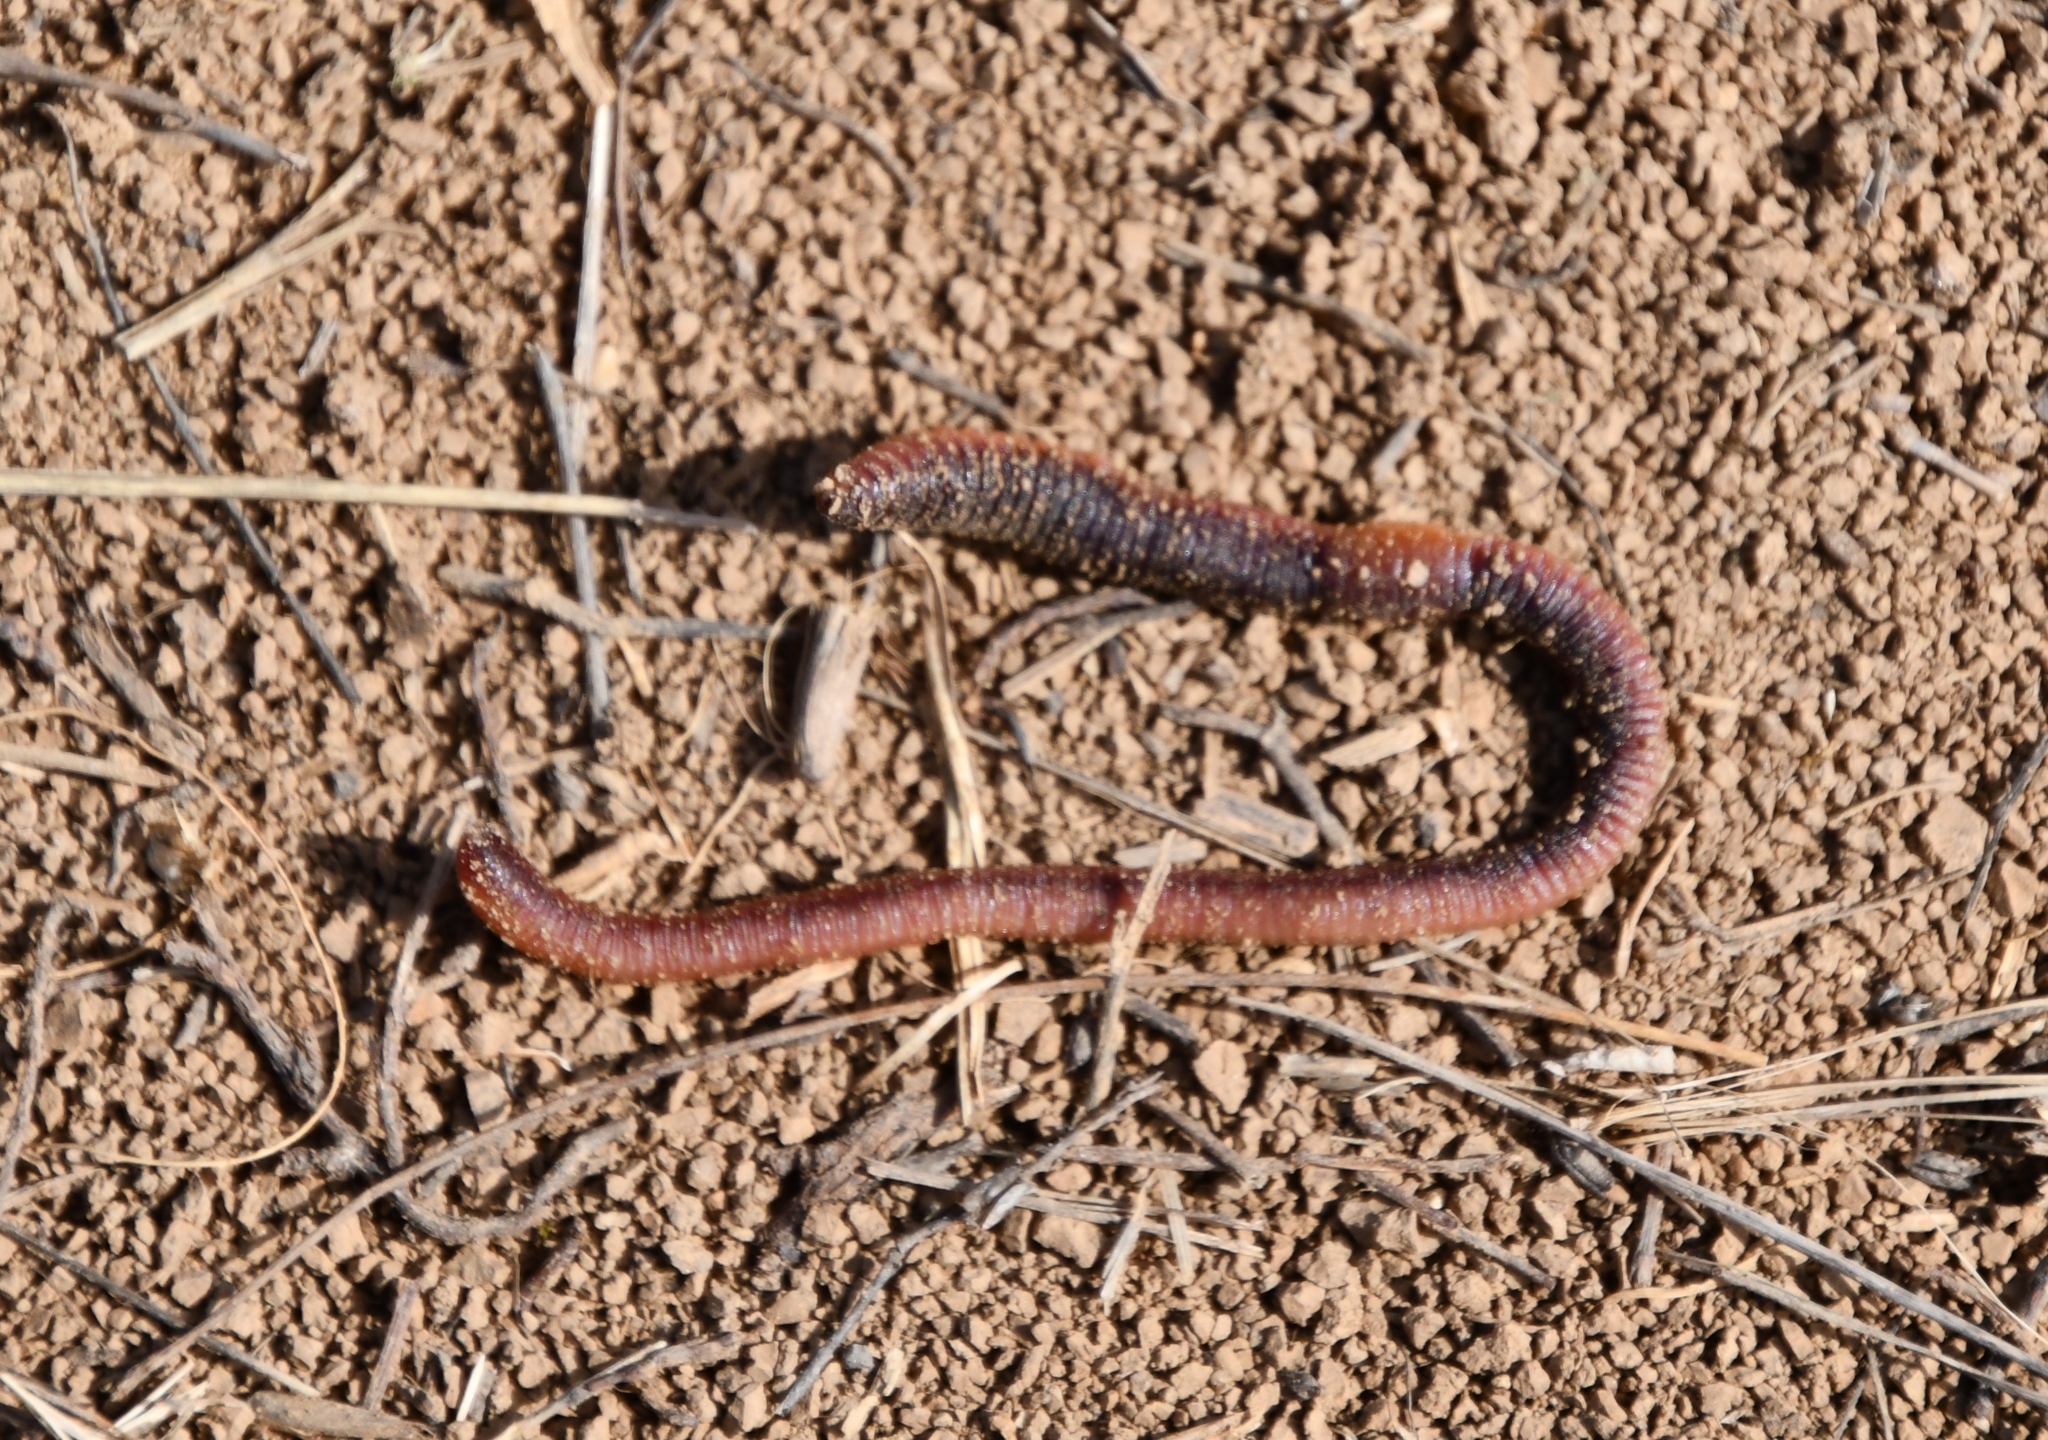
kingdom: Animalia
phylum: Annelida
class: Clitellata
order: Crassiclitellata
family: Lumbricidae
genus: Lumbricus
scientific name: Lumbricus terrestris
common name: Common earthworm
